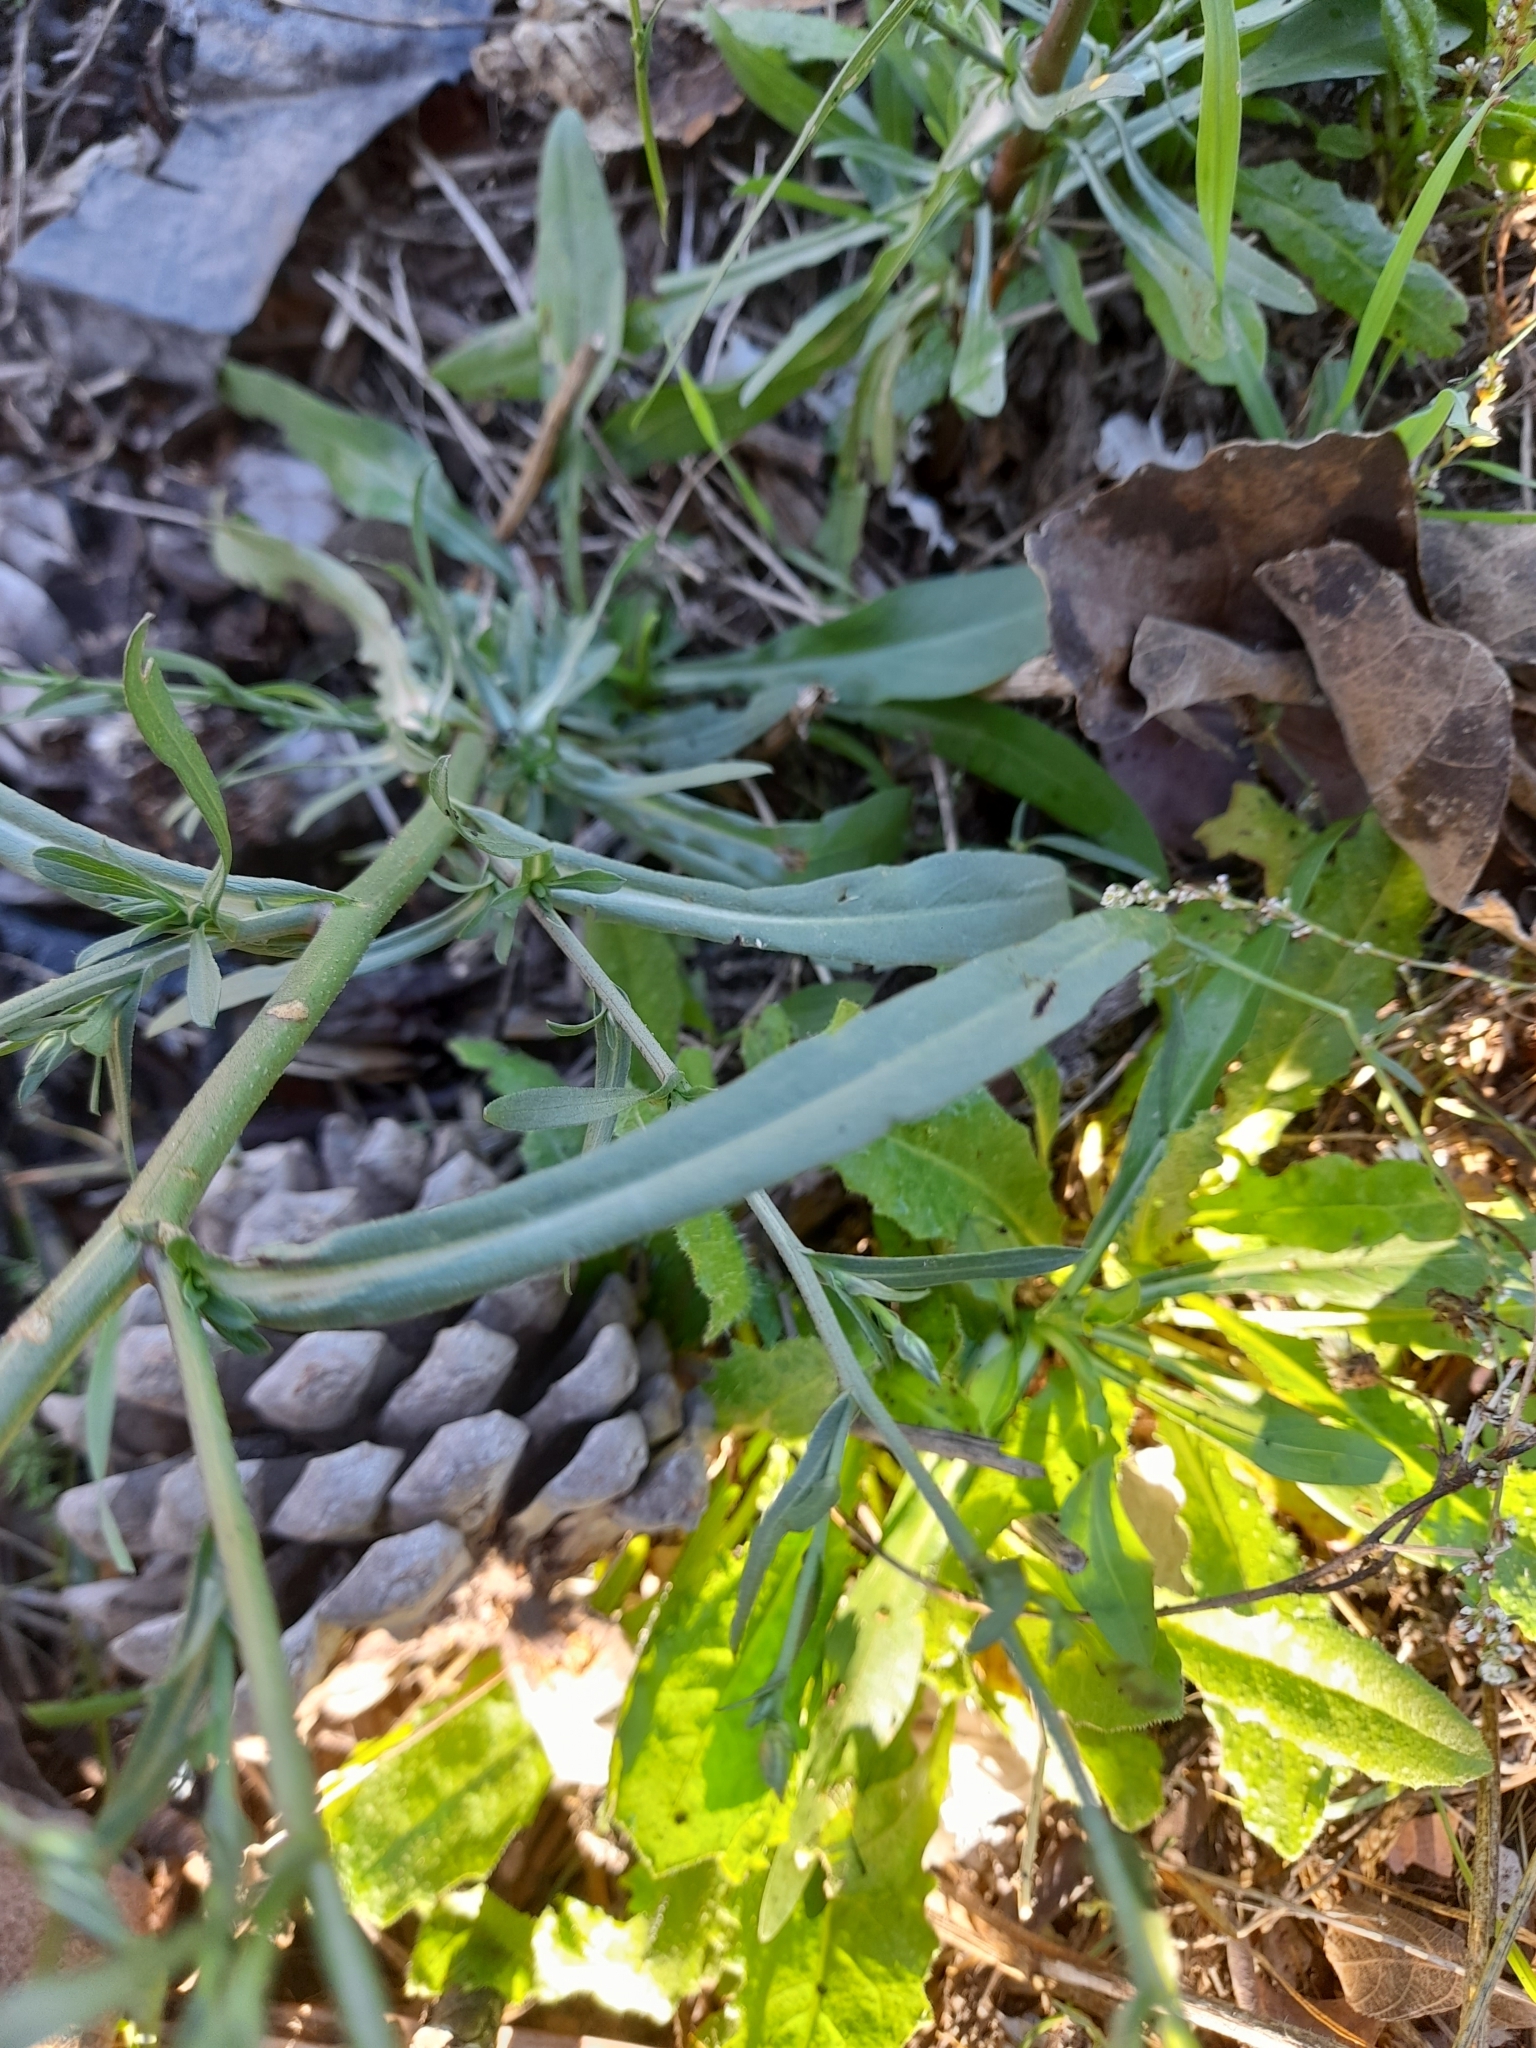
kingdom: Plantae
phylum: Tracheophyta
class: Magnoliopsida
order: Asterales
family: Asteraceae
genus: Symphyotrichum
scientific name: Symphyotrichum squamatum
